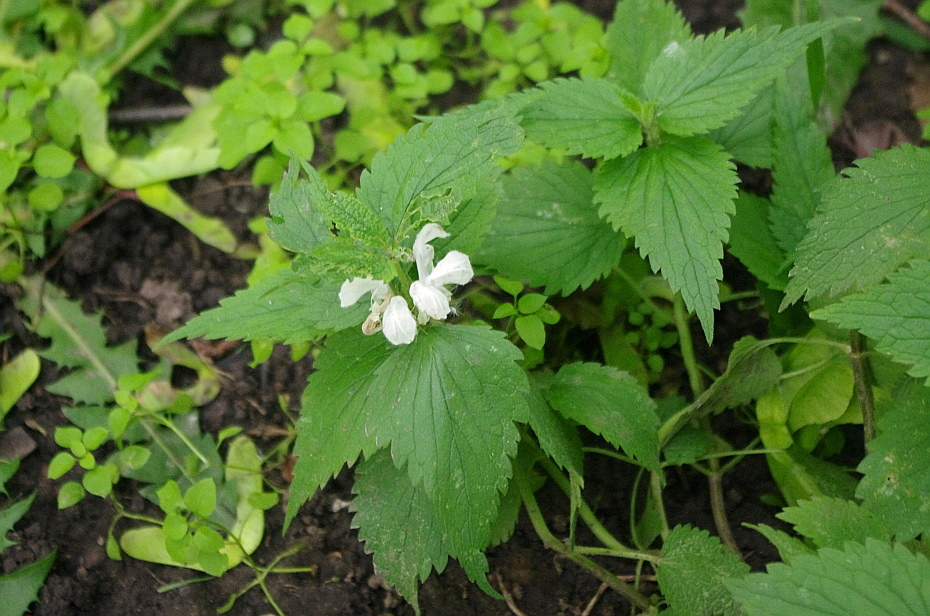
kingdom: Plantae
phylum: Tracheophyta
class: Magnoliopsida
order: Lamiales
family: Lamiaceae
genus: Lamium
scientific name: Lamium album
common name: White dead-nettle
